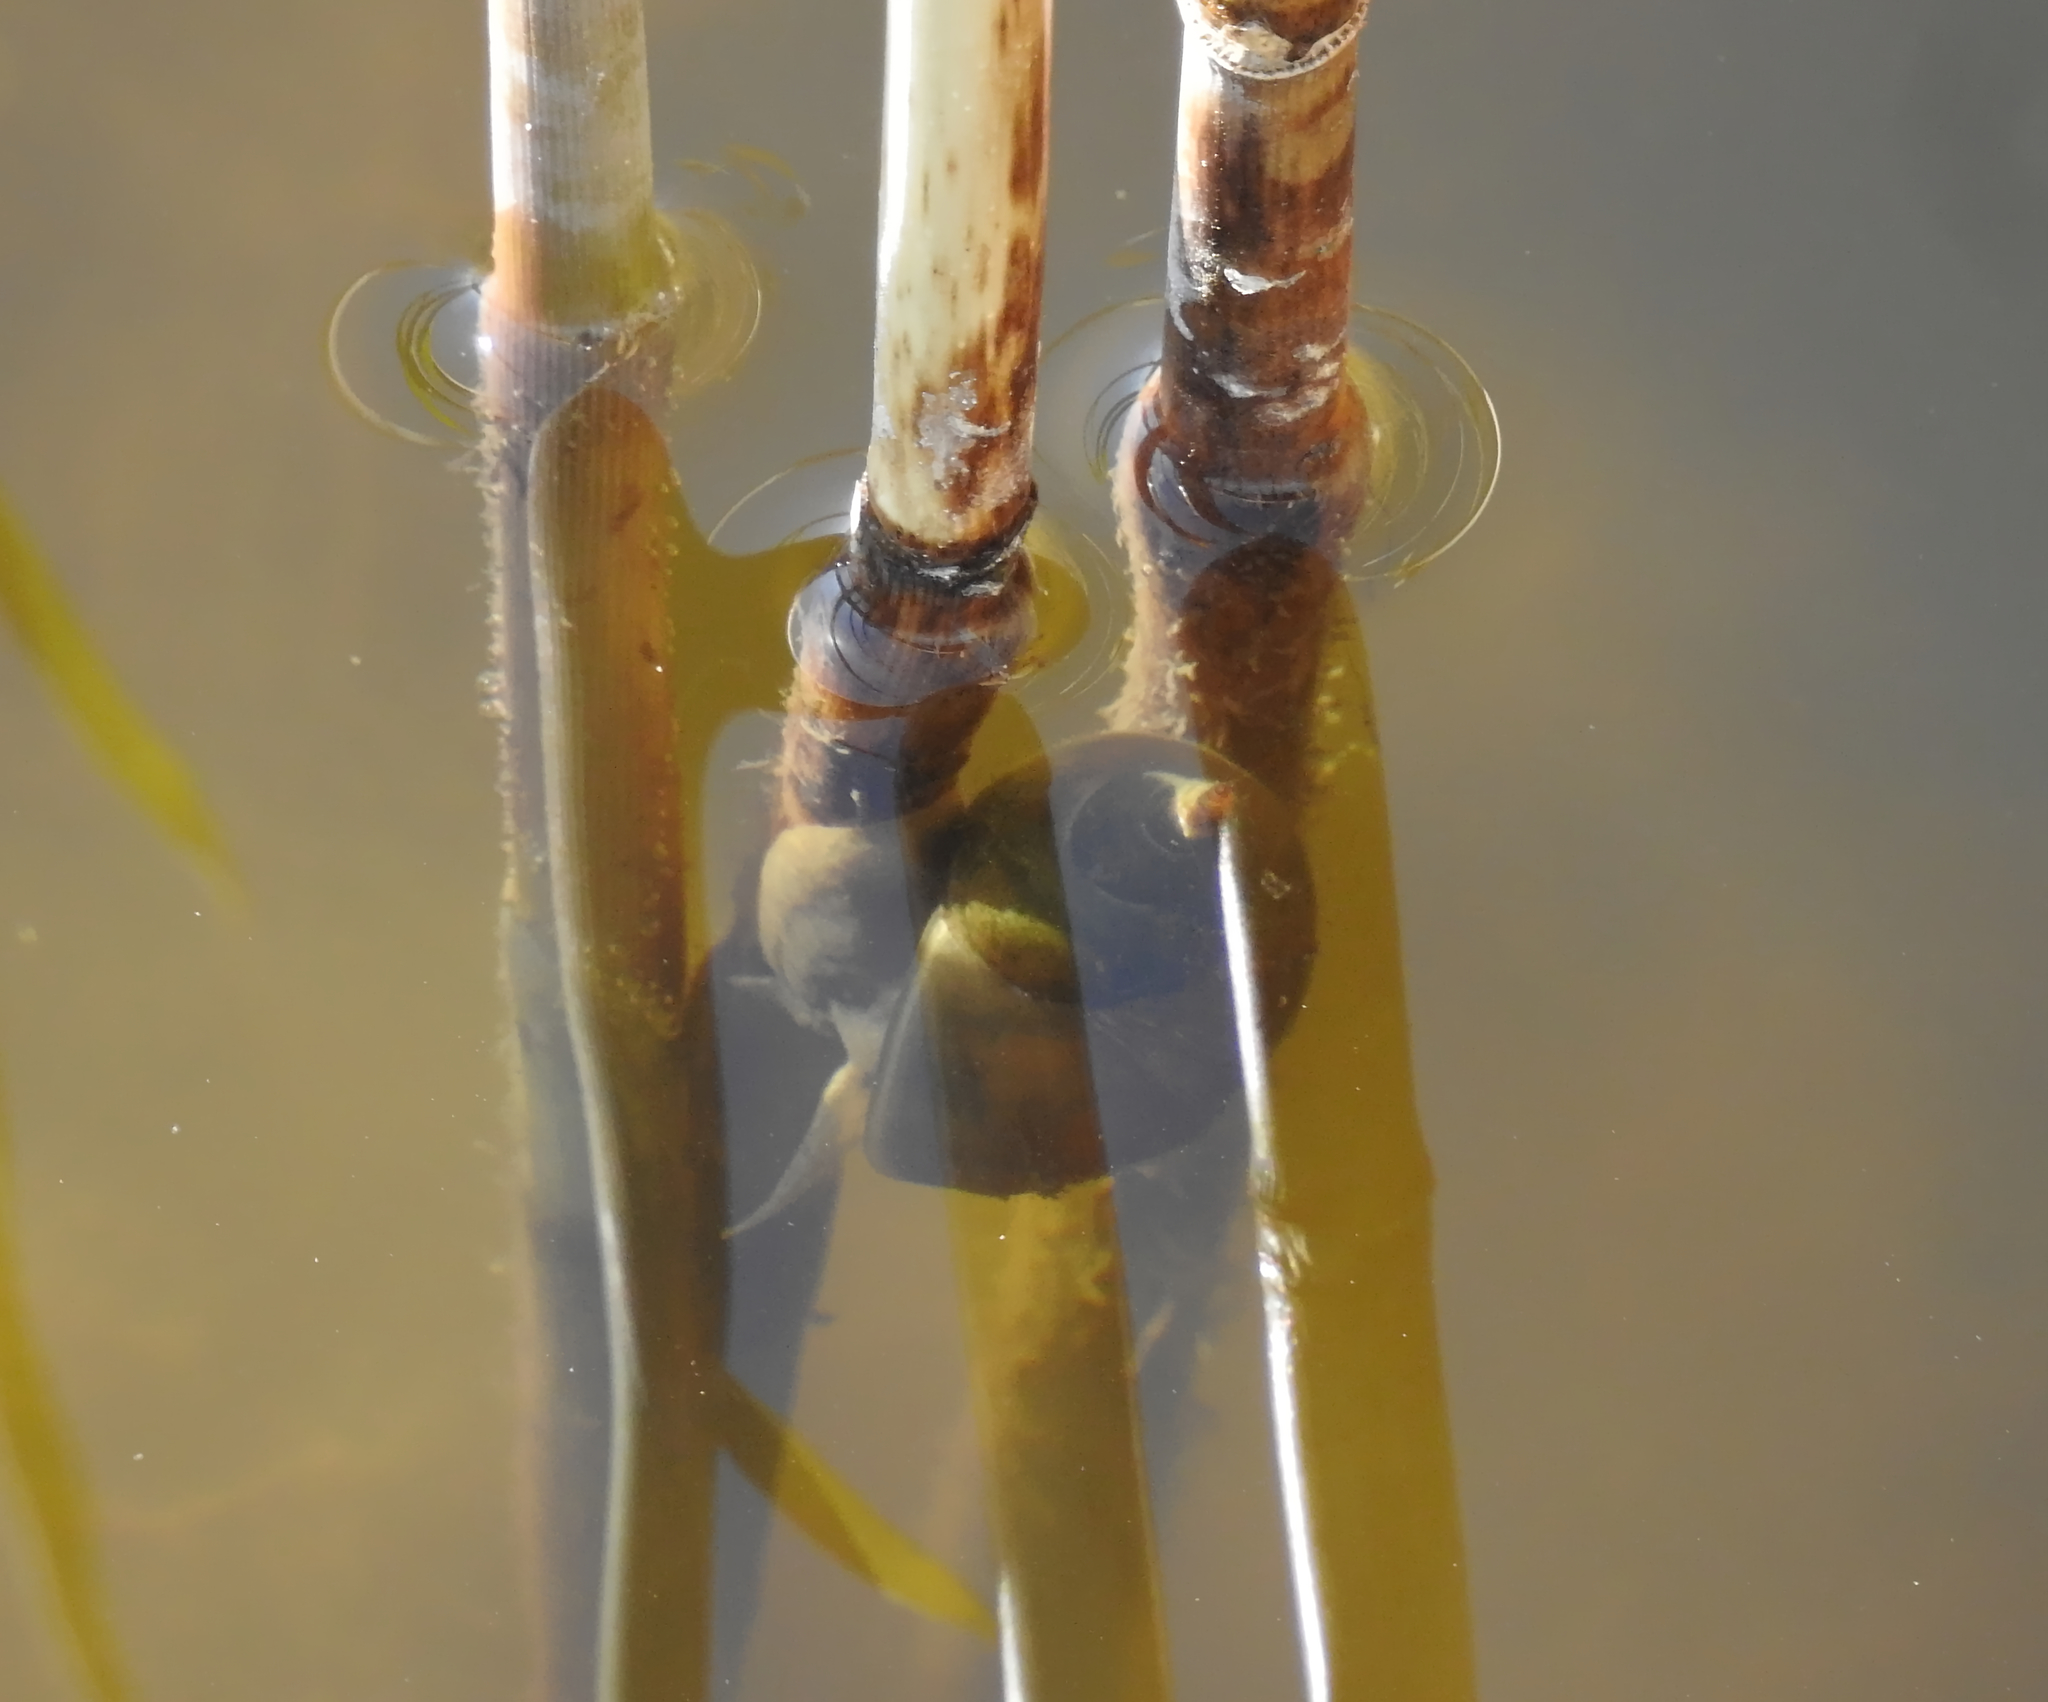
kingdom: Animalia
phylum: Mollusca
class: Gastropoda
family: Lymnaeidae
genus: Lymnaea
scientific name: Lymnaea stagnalis
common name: Great pond snail
